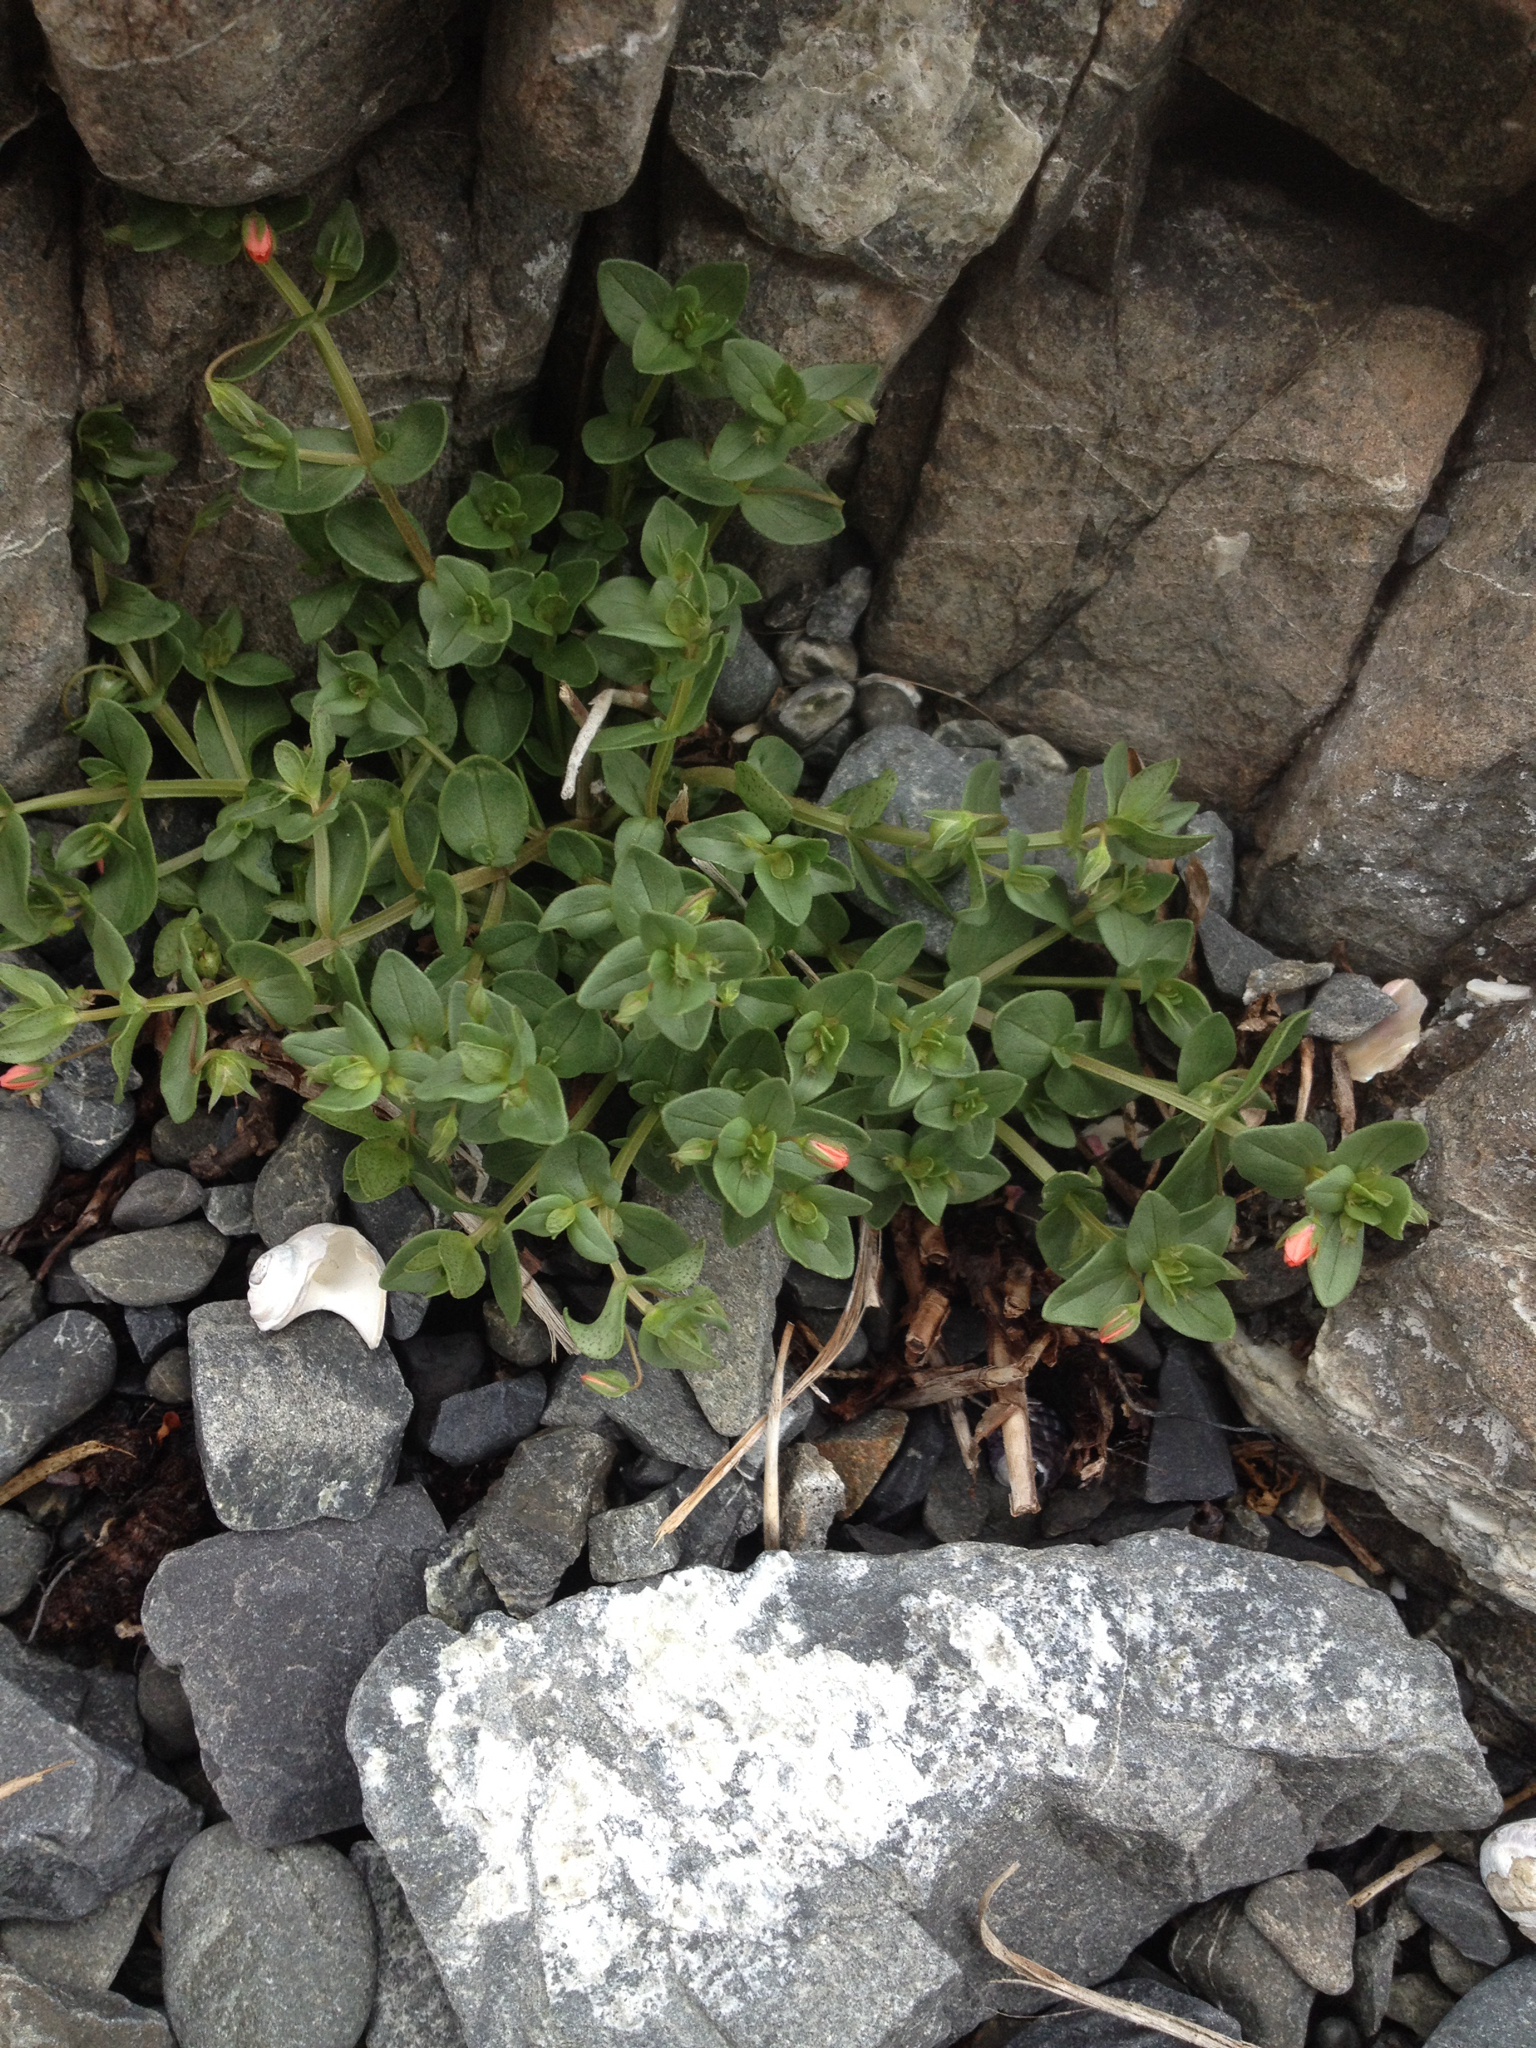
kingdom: Plantae
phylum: Tracheophyta
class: Magnoliopsida
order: Ericales
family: Primulaceae
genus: Lysimachia
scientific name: Lysimachia arvensis
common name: Scarlet pimpernel
